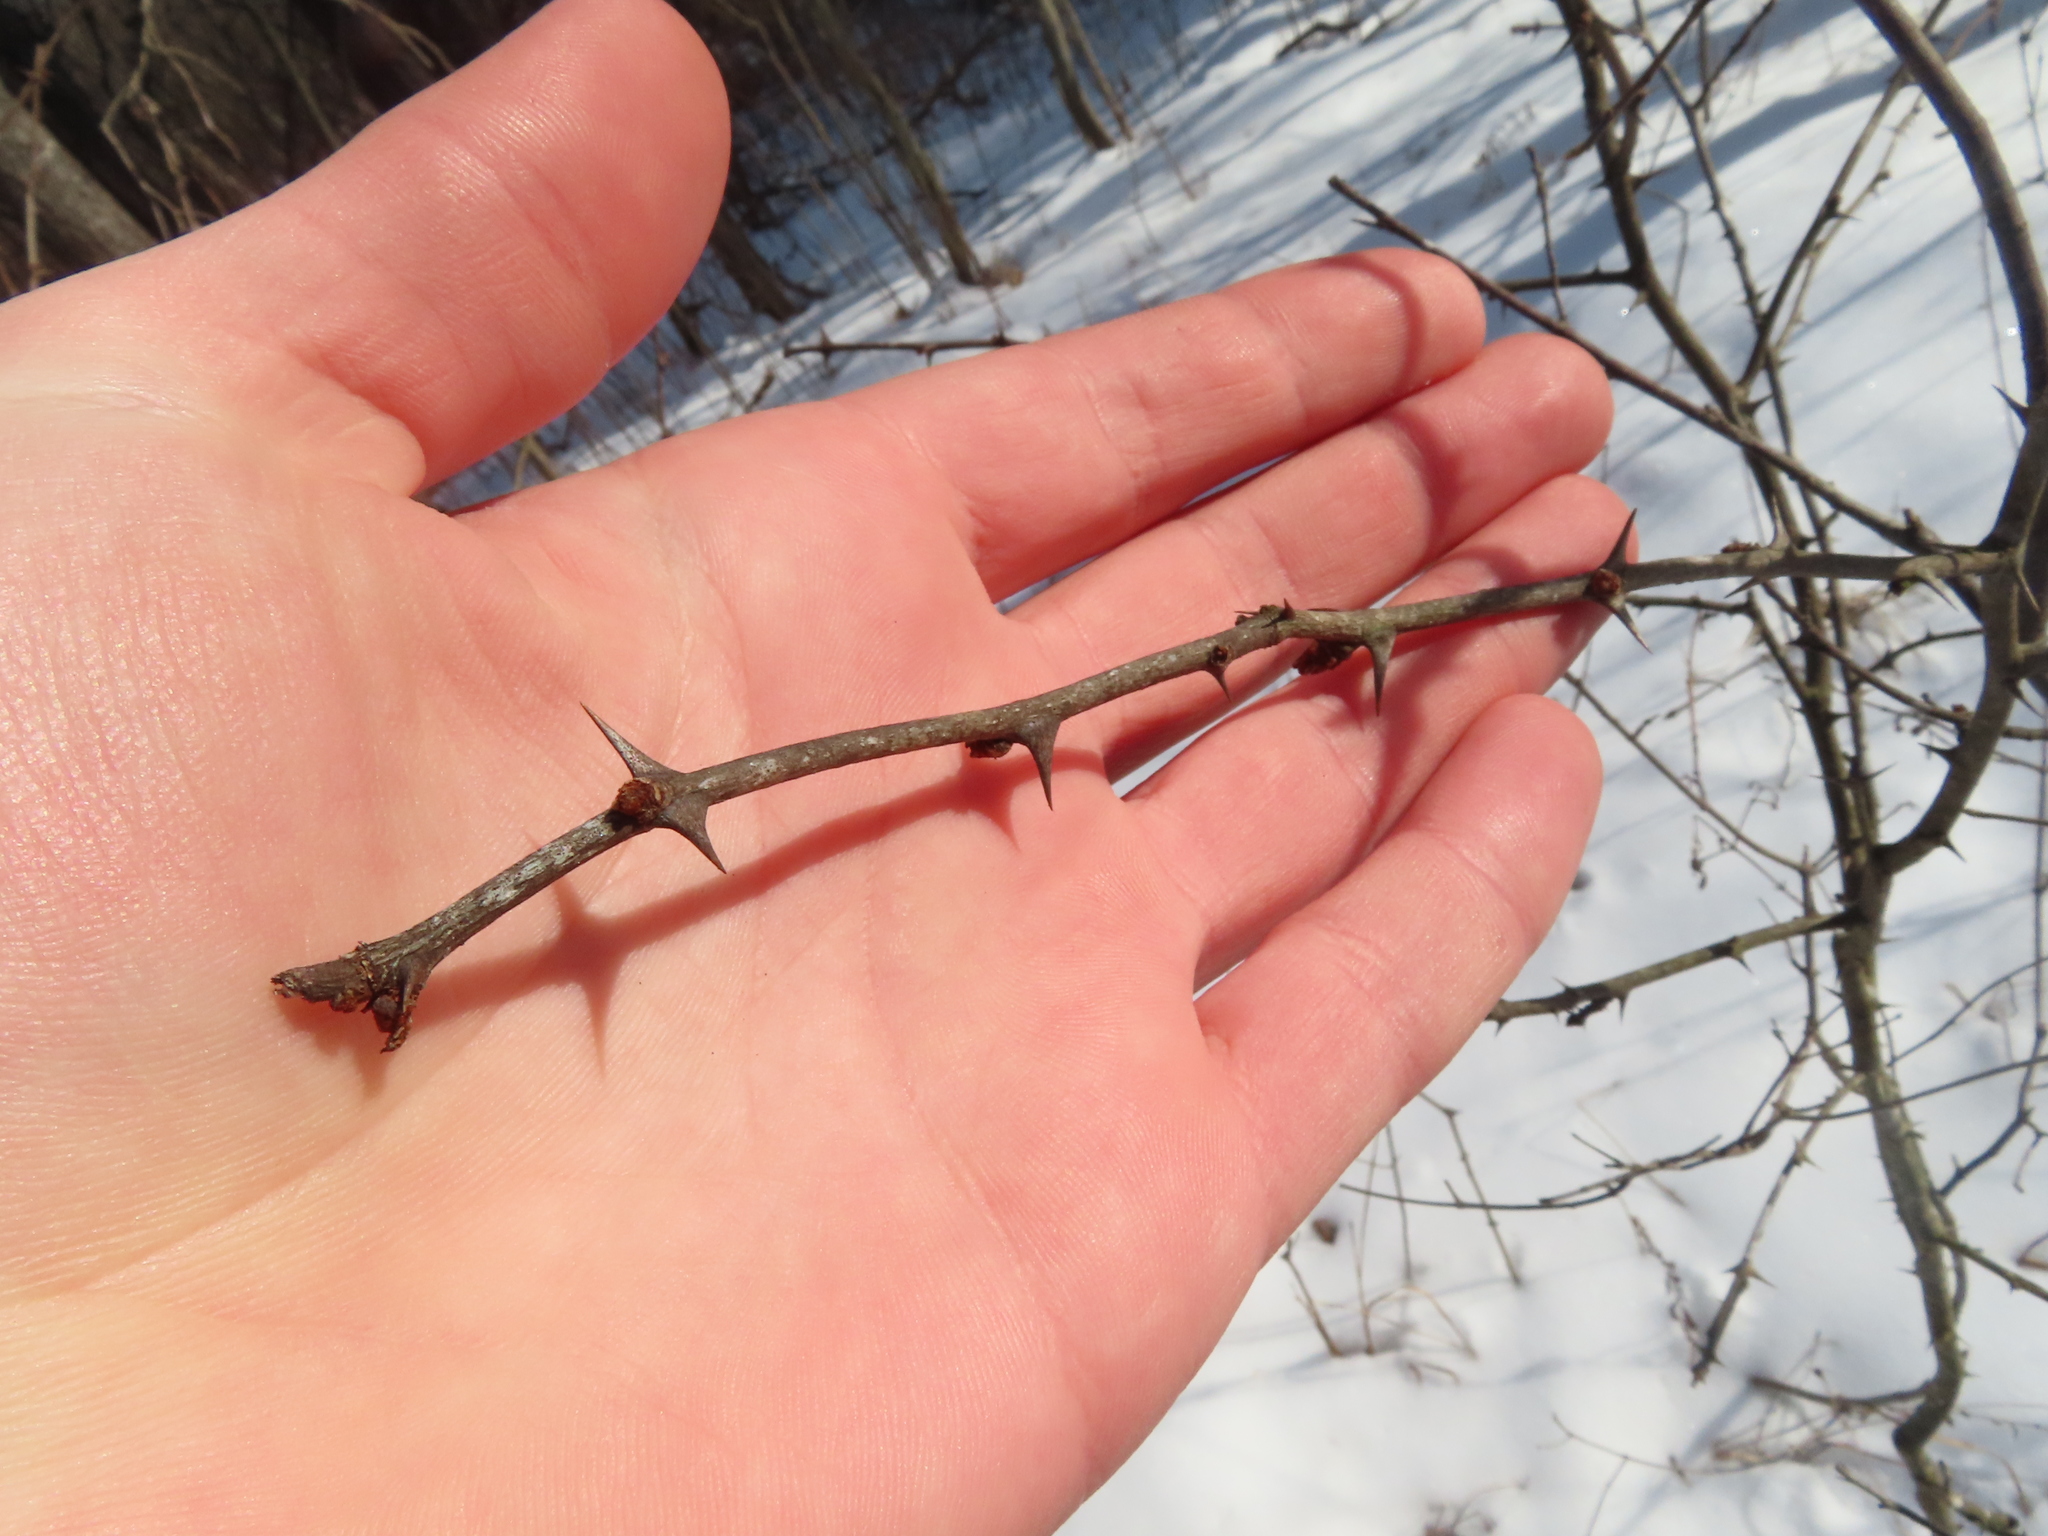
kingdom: Plantae
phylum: Tracheophyta
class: Magnoliopsida
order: Sapindales
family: Rutaceae
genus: Zanthoxylum
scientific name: Zanthoxylum americanum
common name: Northern prickly-ash
